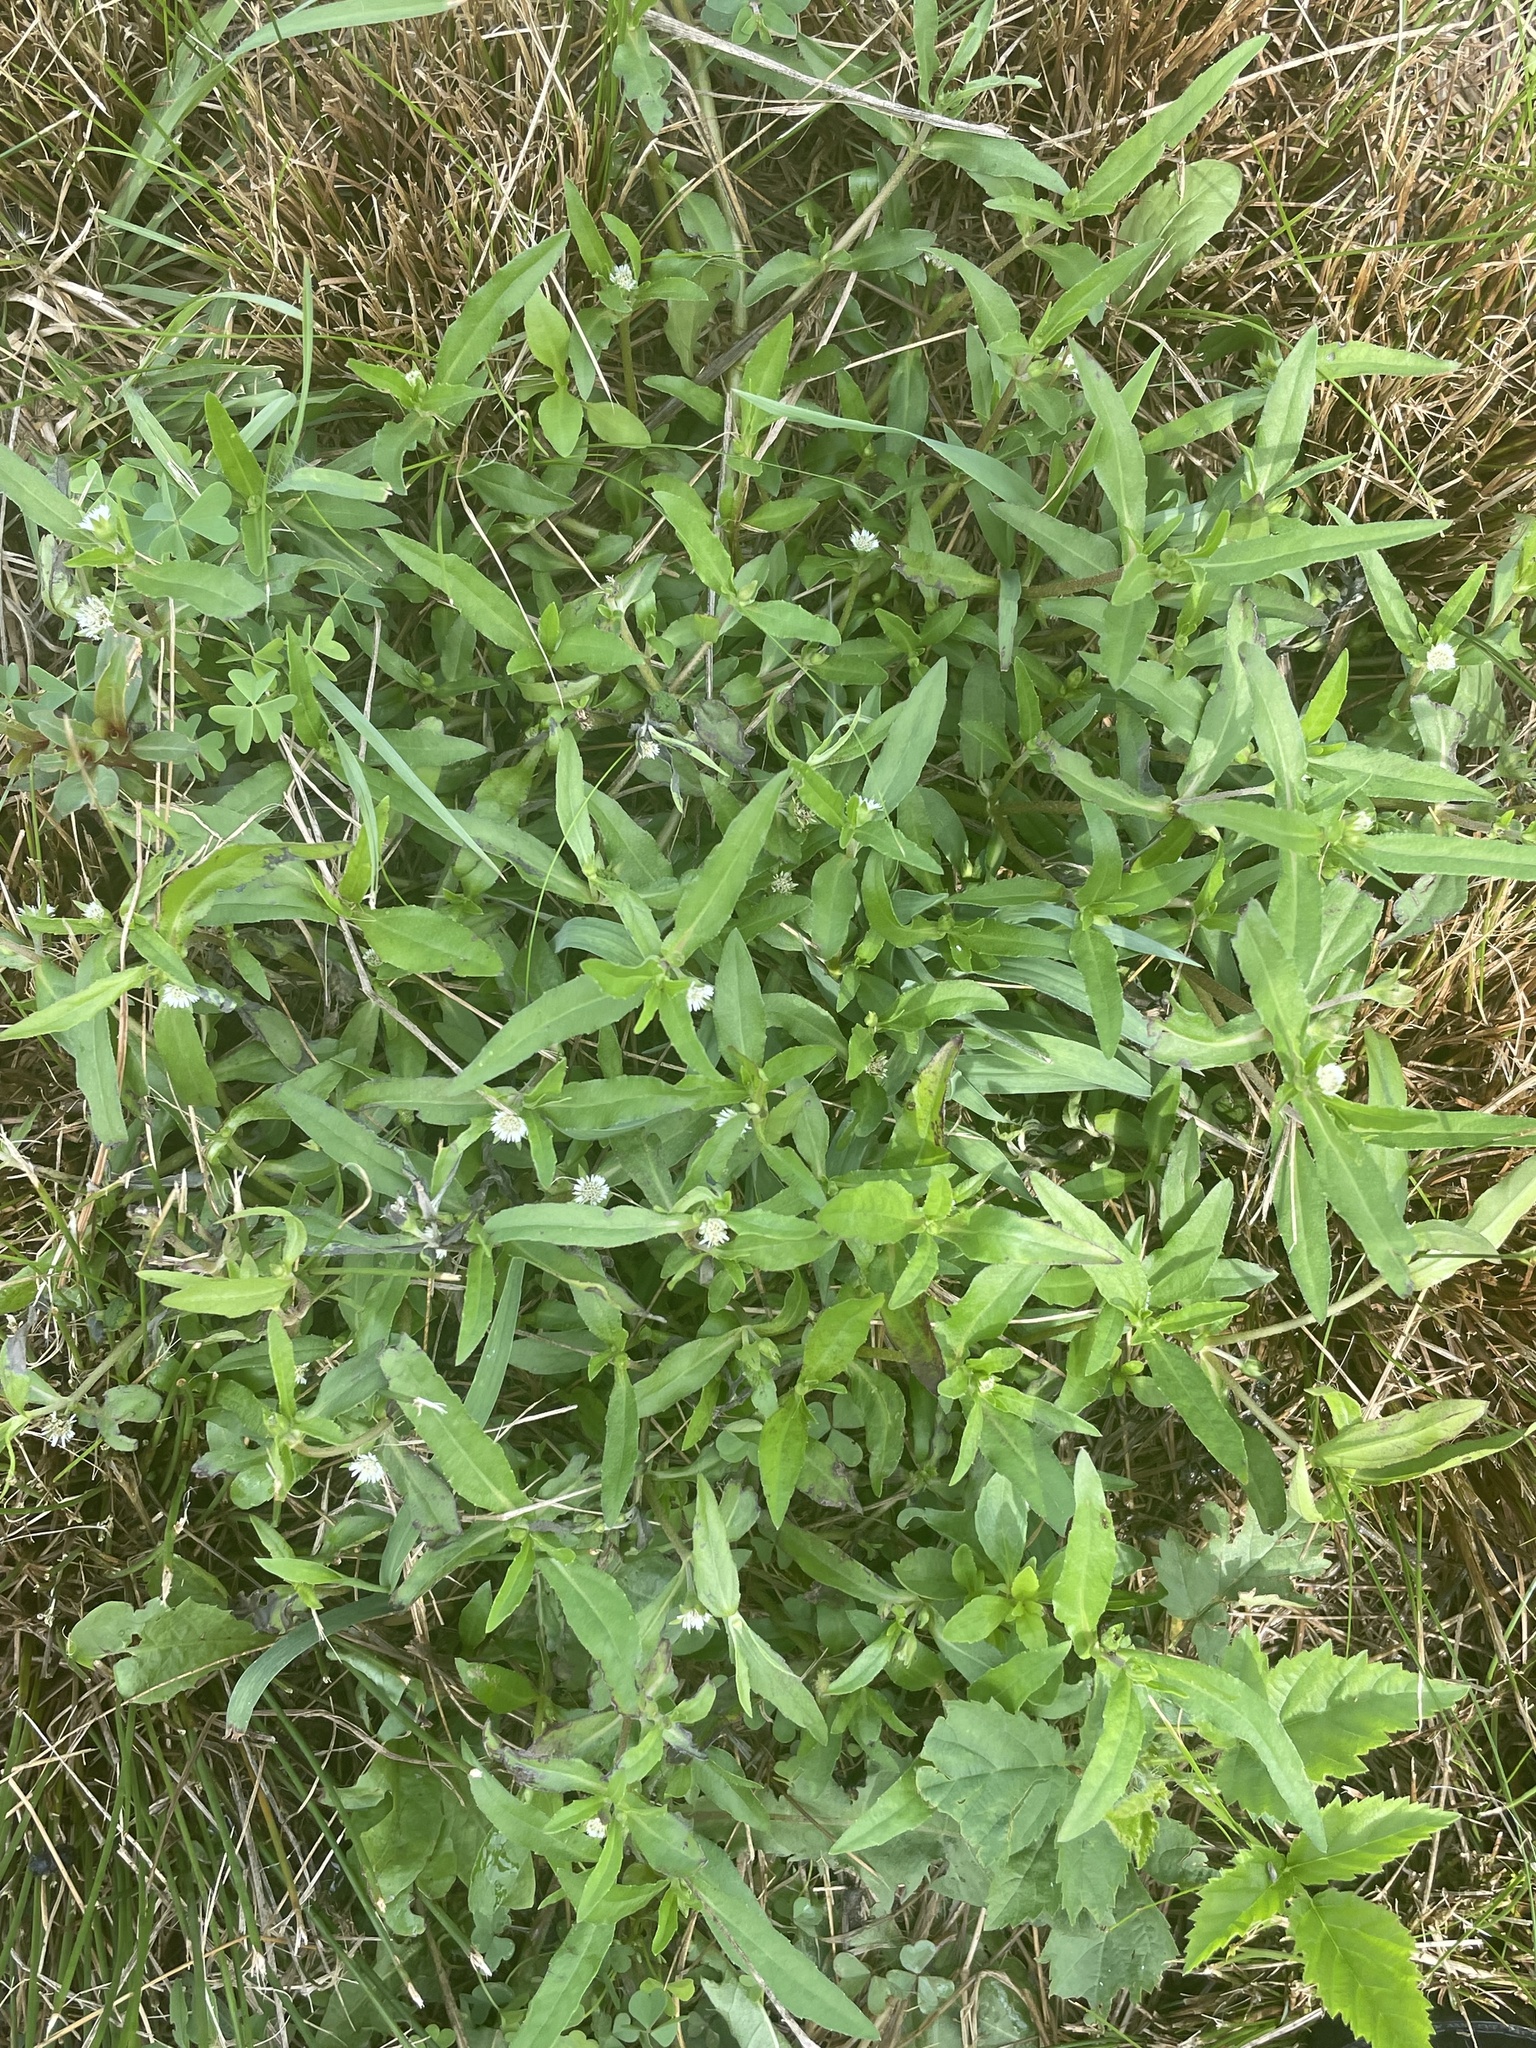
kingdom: Plantae
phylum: Tracheophyta
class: Magnoliopsida
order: Asterales
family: Asteraceae
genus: Eclipta
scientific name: Eclipta prostrata
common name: False daisy
